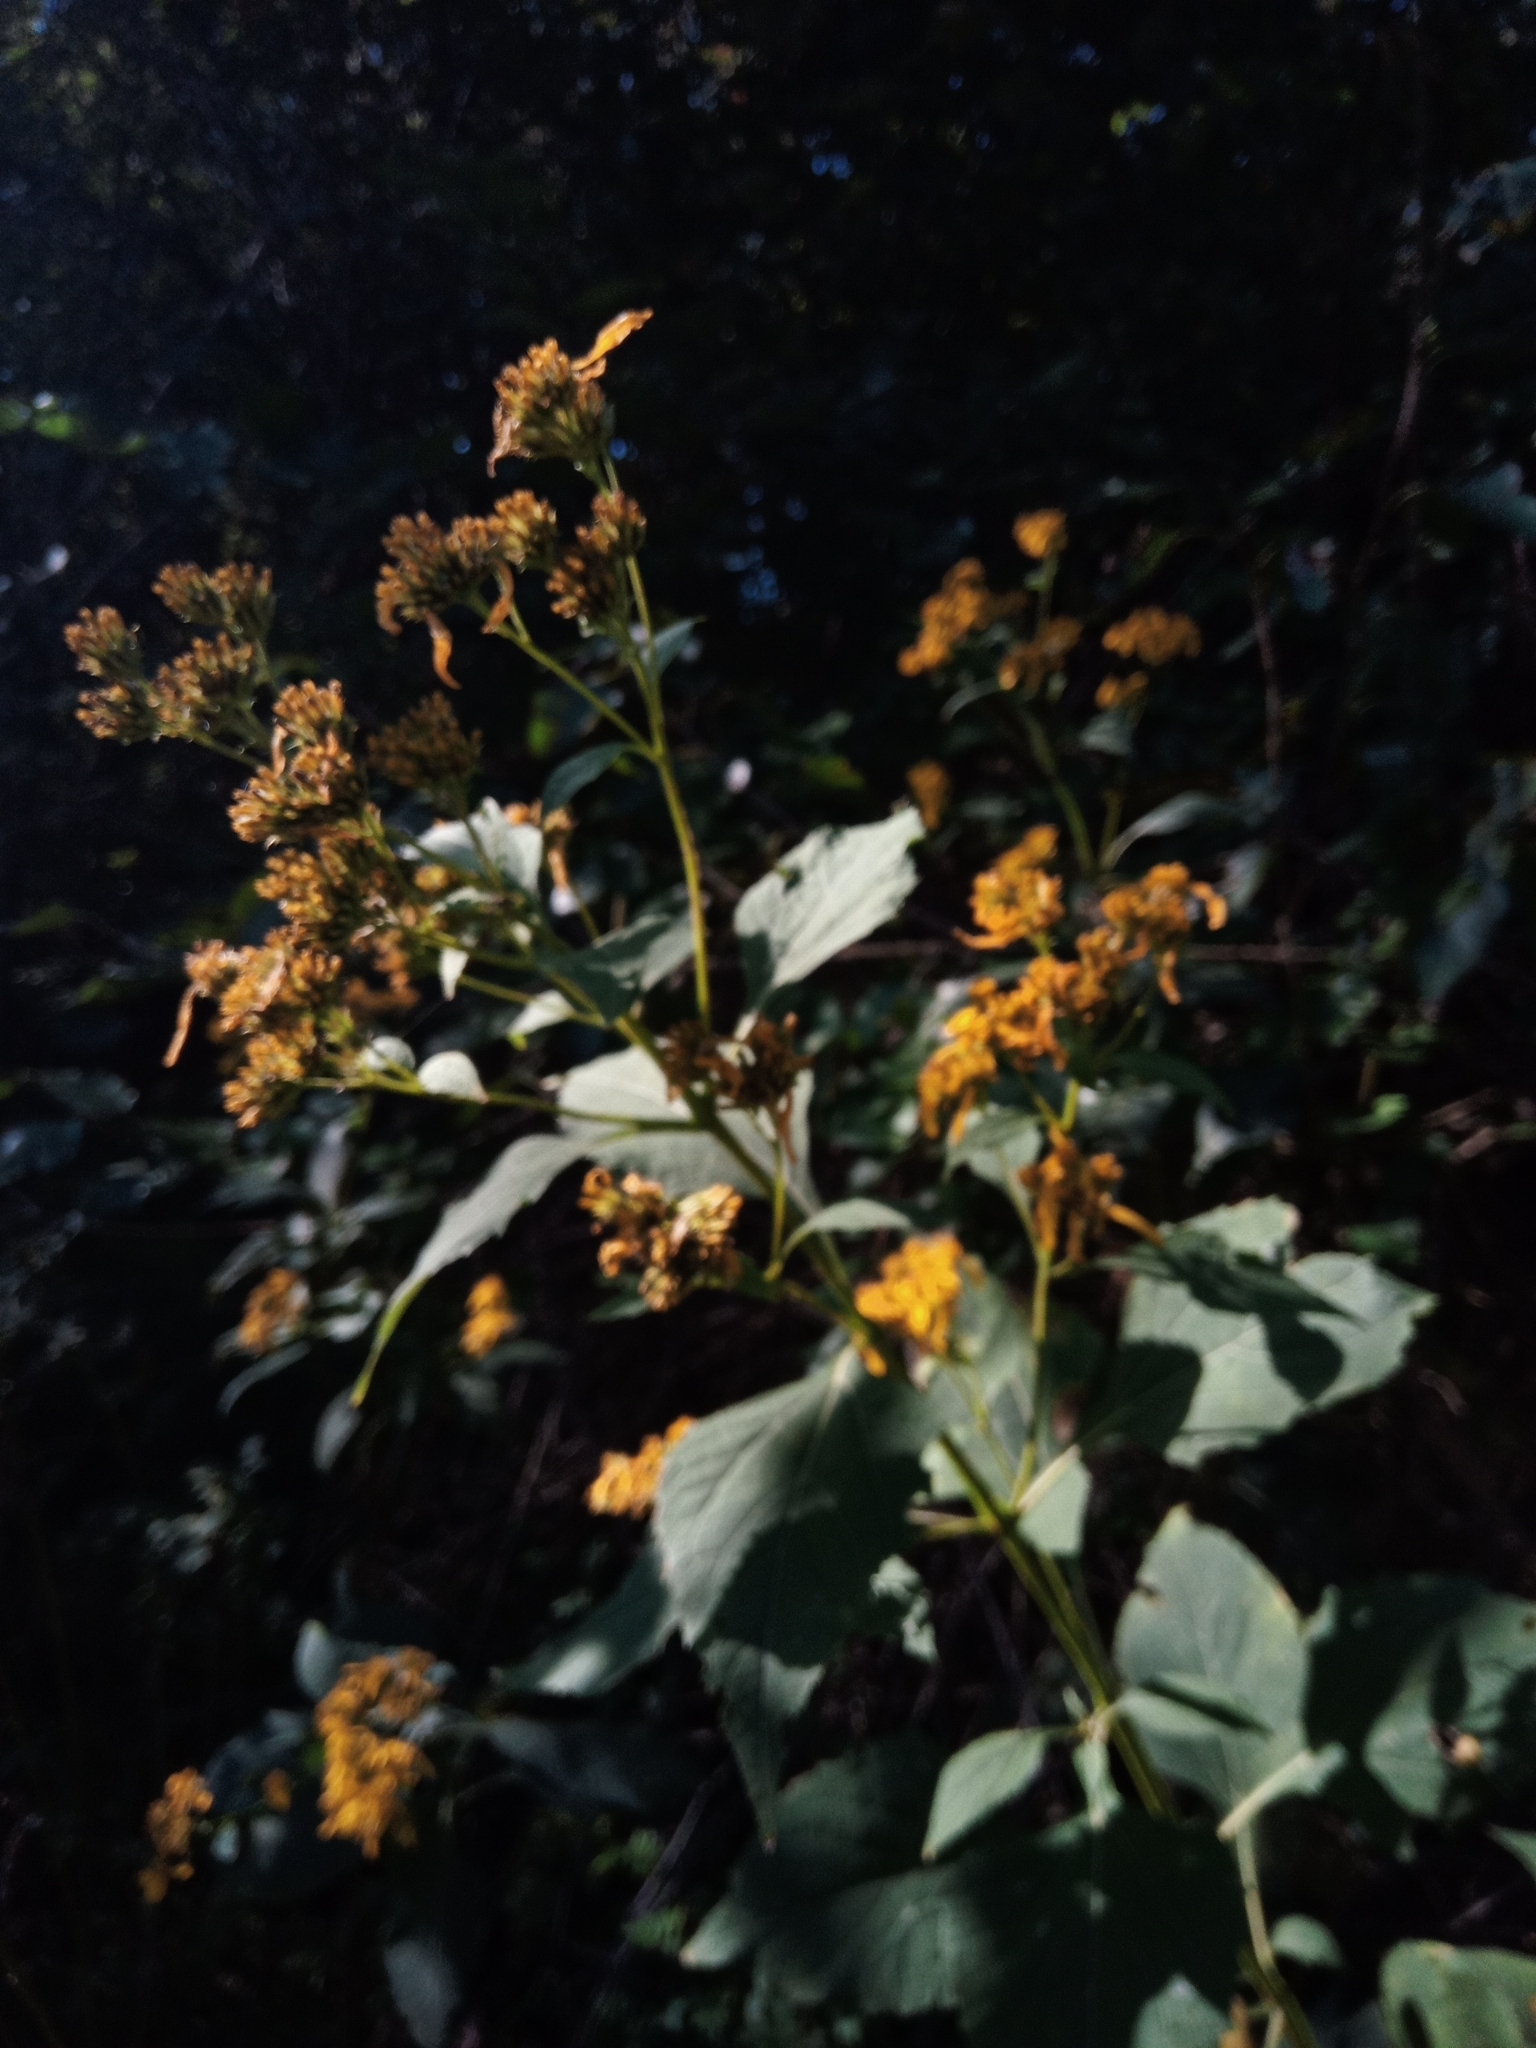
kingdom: Plantae
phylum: Tracheophyta
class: Magnoliopsida
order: Asterales
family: Asteraceae
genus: Verbesina
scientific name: Verbesina occidentalis
